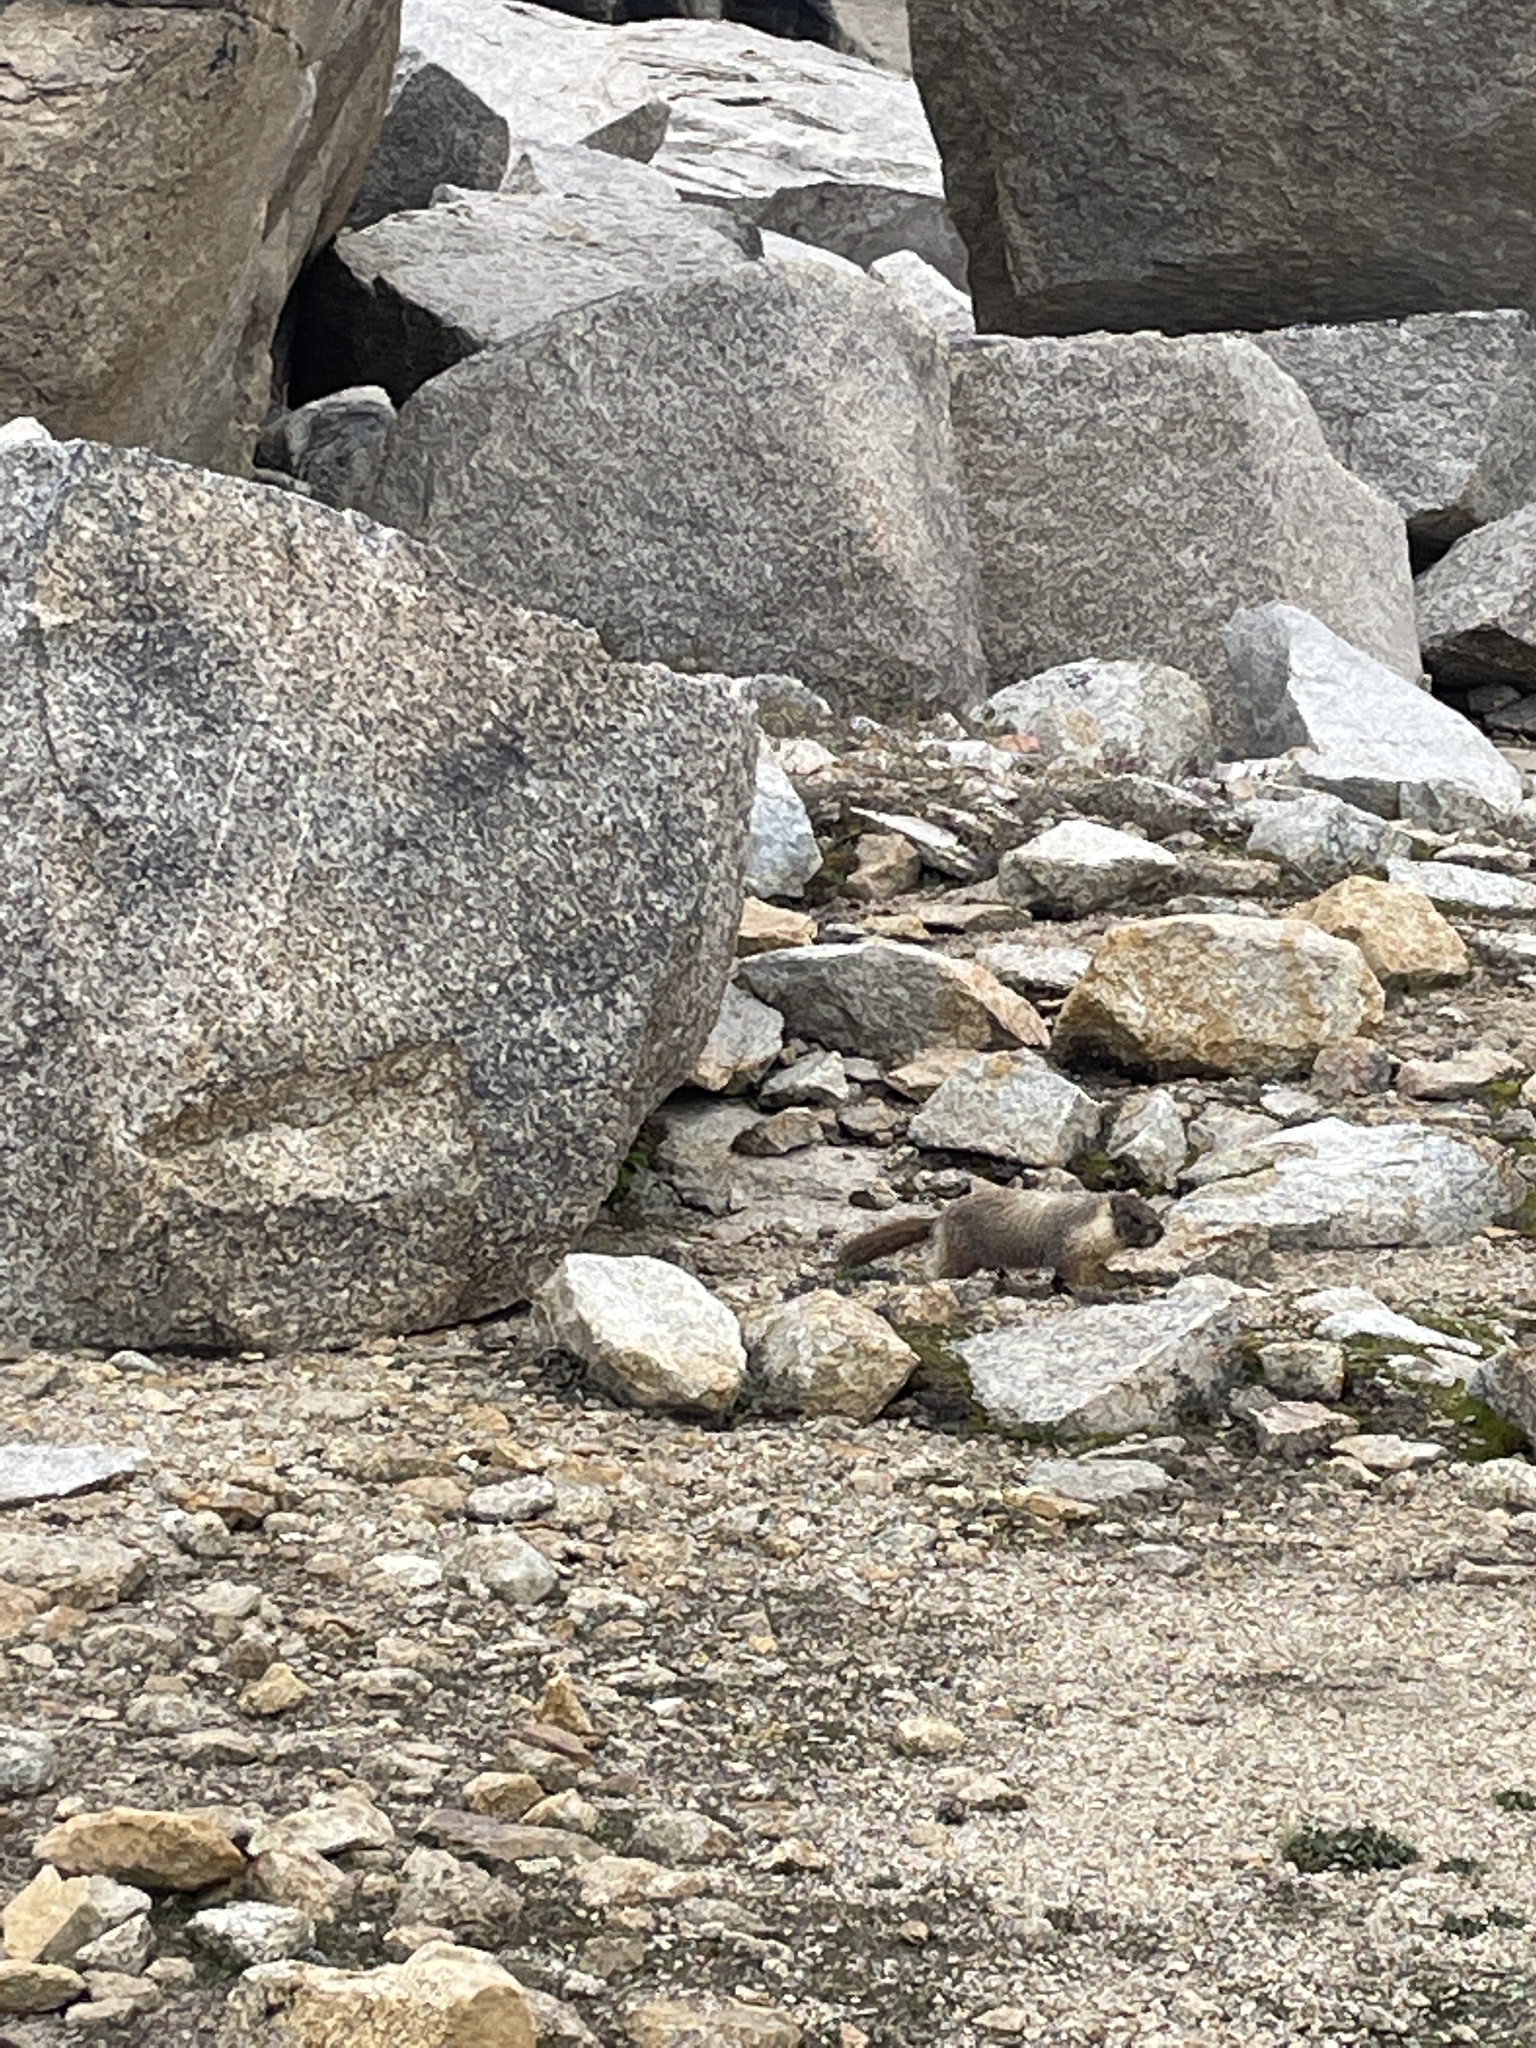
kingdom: Animalia
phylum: Chordata
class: Mammalia
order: Rodentia
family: Sciuridae
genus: Marmota
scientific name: Marmota flaviventris
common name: Yellow-bellied marmot
